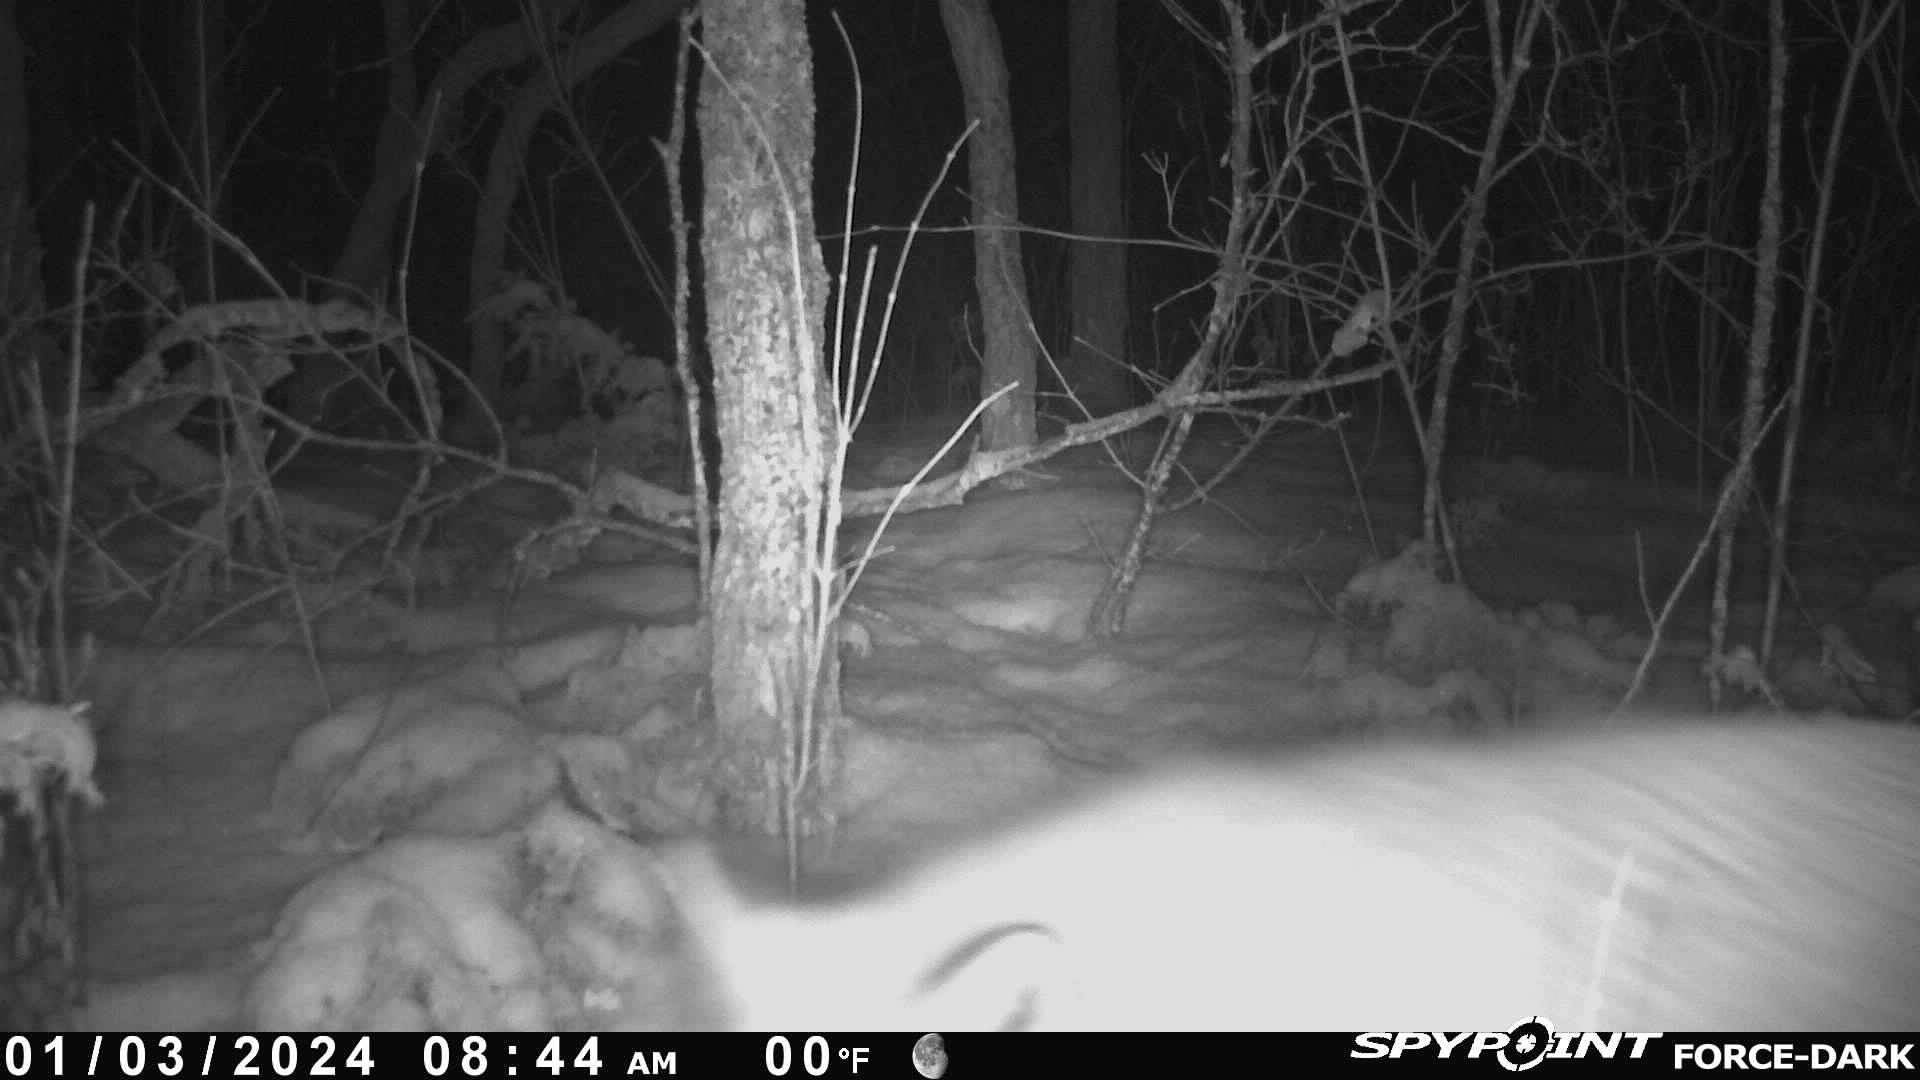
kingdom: Animalia
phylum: Chordata
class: Mammalia
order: Carnivora
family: Canidae
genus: Vulpes
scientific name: Vulpes vulpes
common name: Red fox
